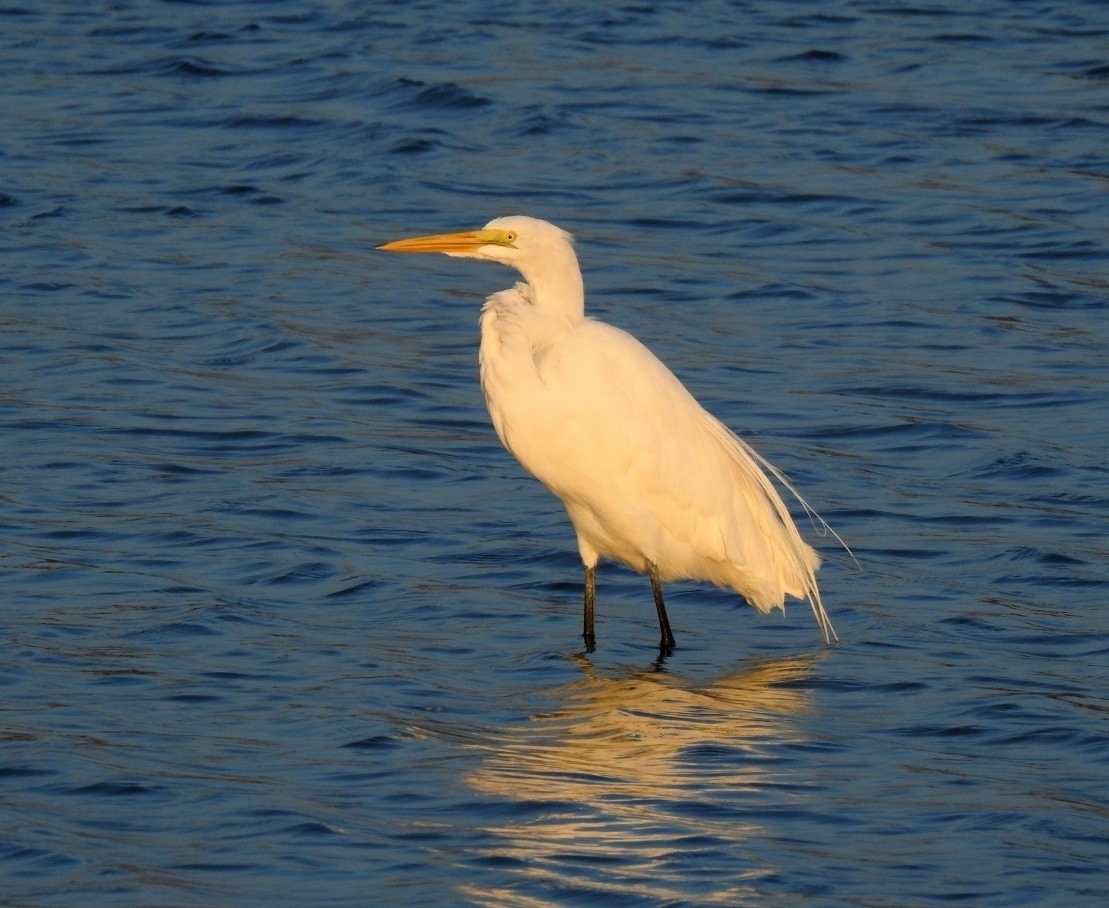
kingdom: Animalia
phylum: Chordata
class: Aves
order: Pelecaniformes
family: Ardeidae
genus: Ardea
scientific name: Ardea alba
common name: Great egret
